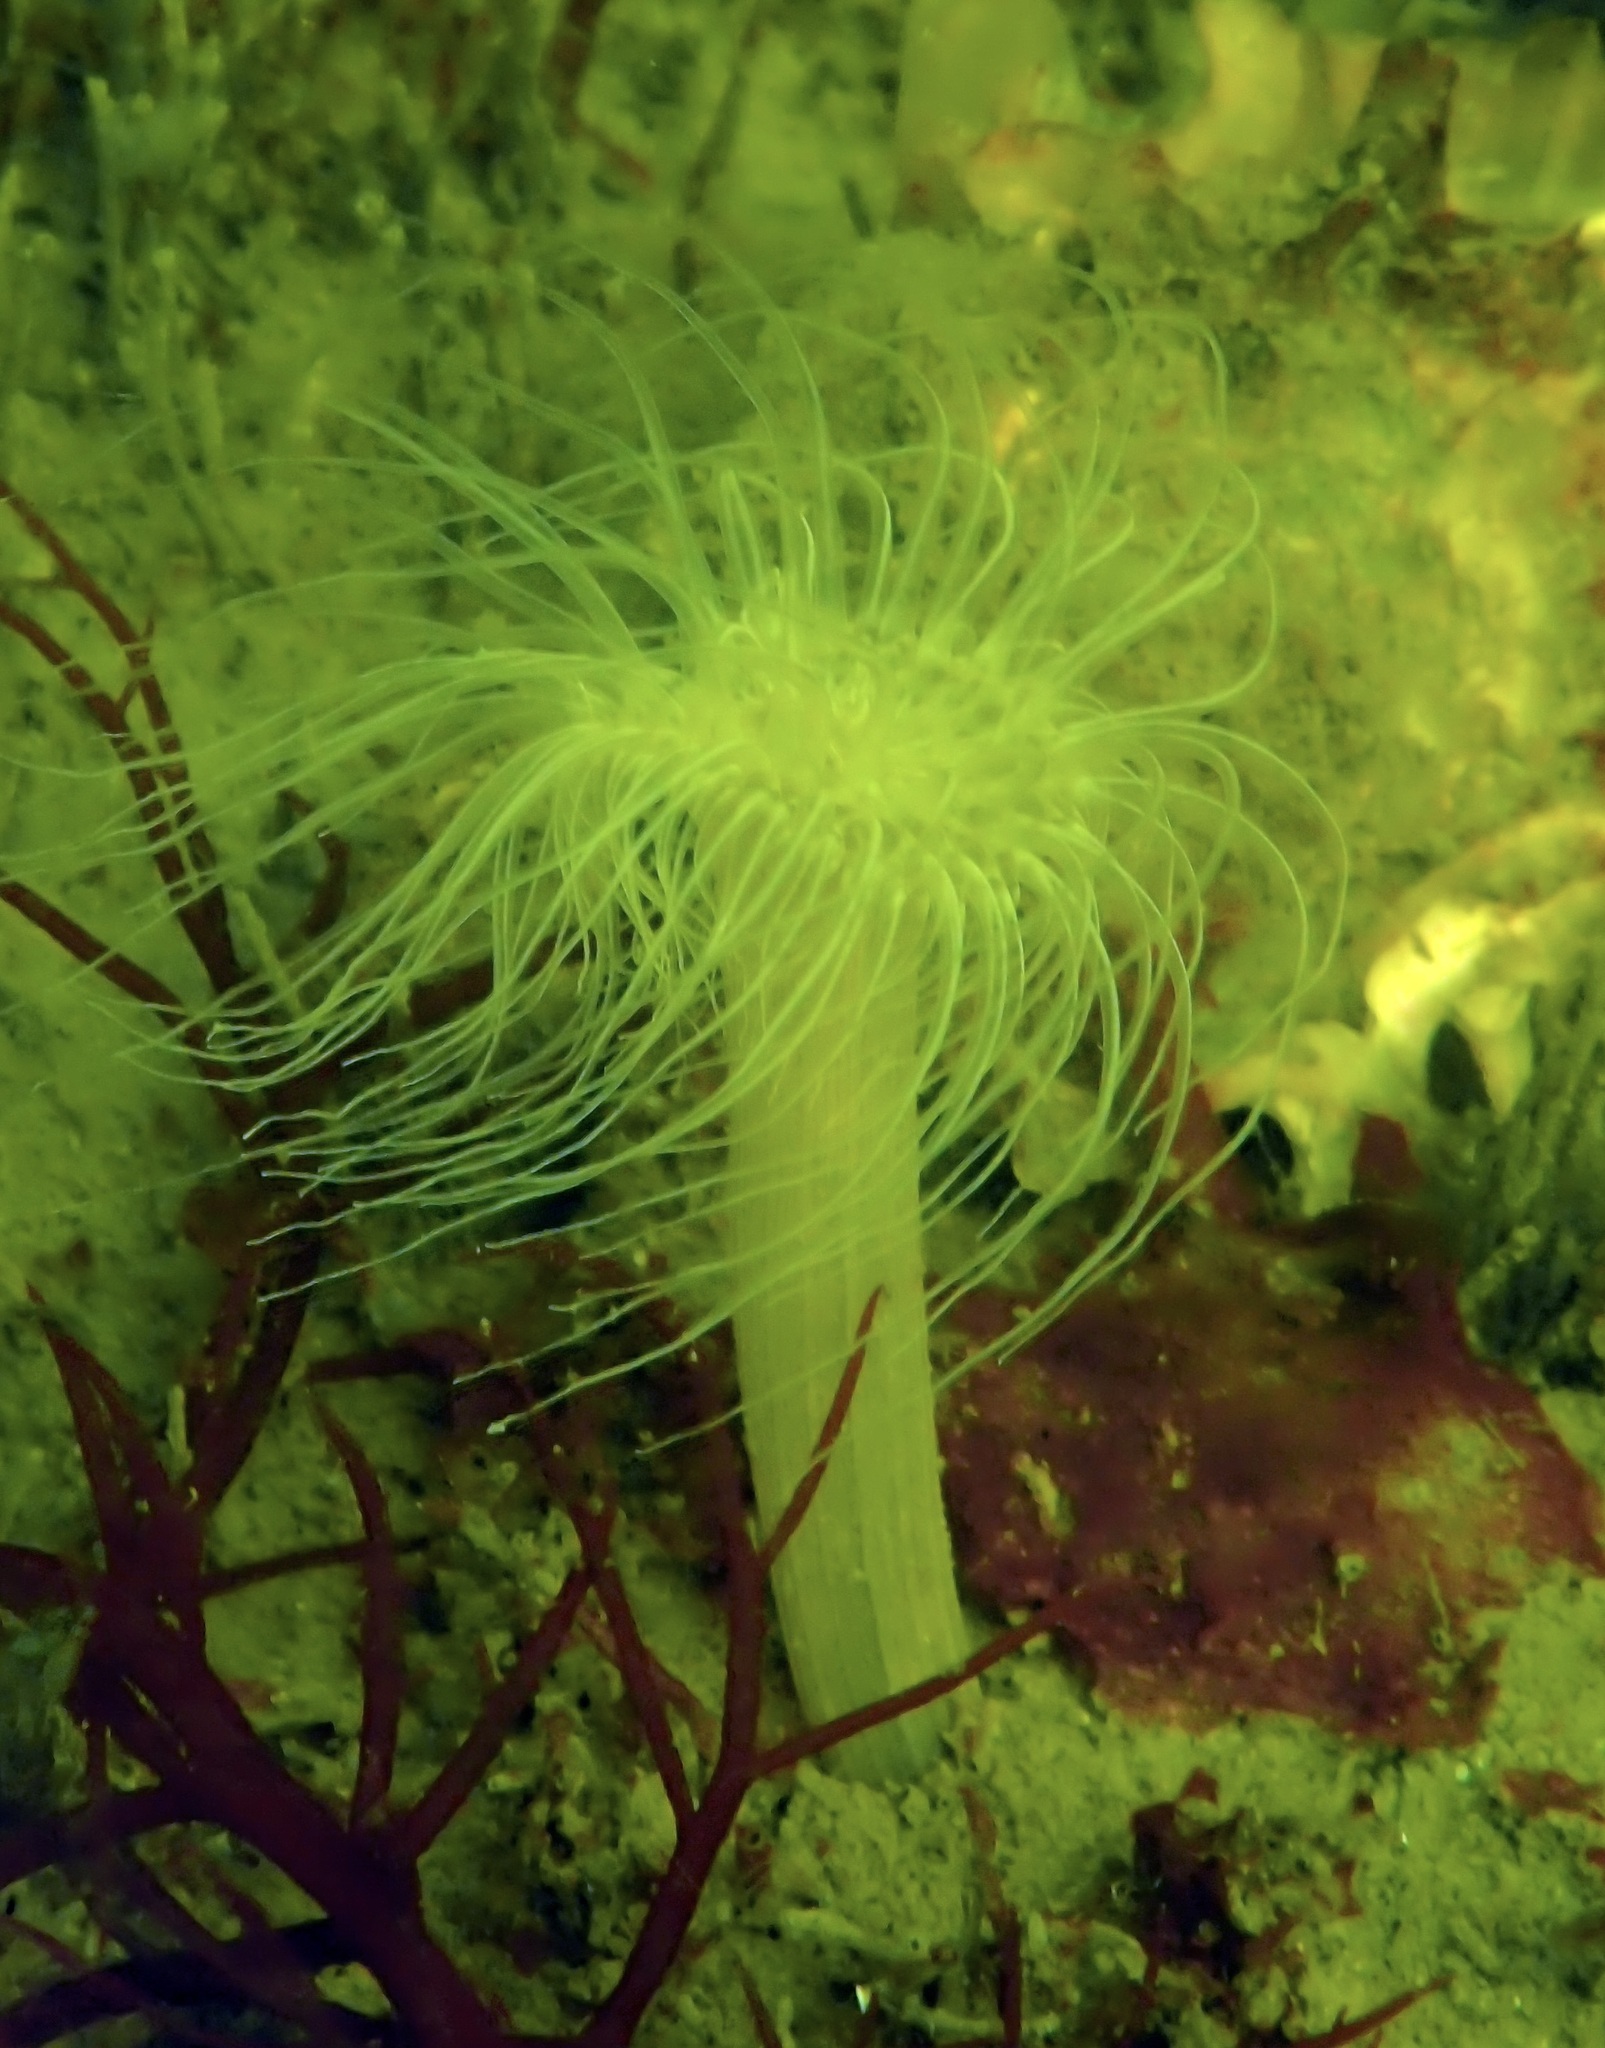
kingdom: Animalia
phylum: Cnidaria
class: Anthozoa
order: Actiniaria
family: Sagartiidae
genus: Sagartia
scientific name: Sagartia undata
